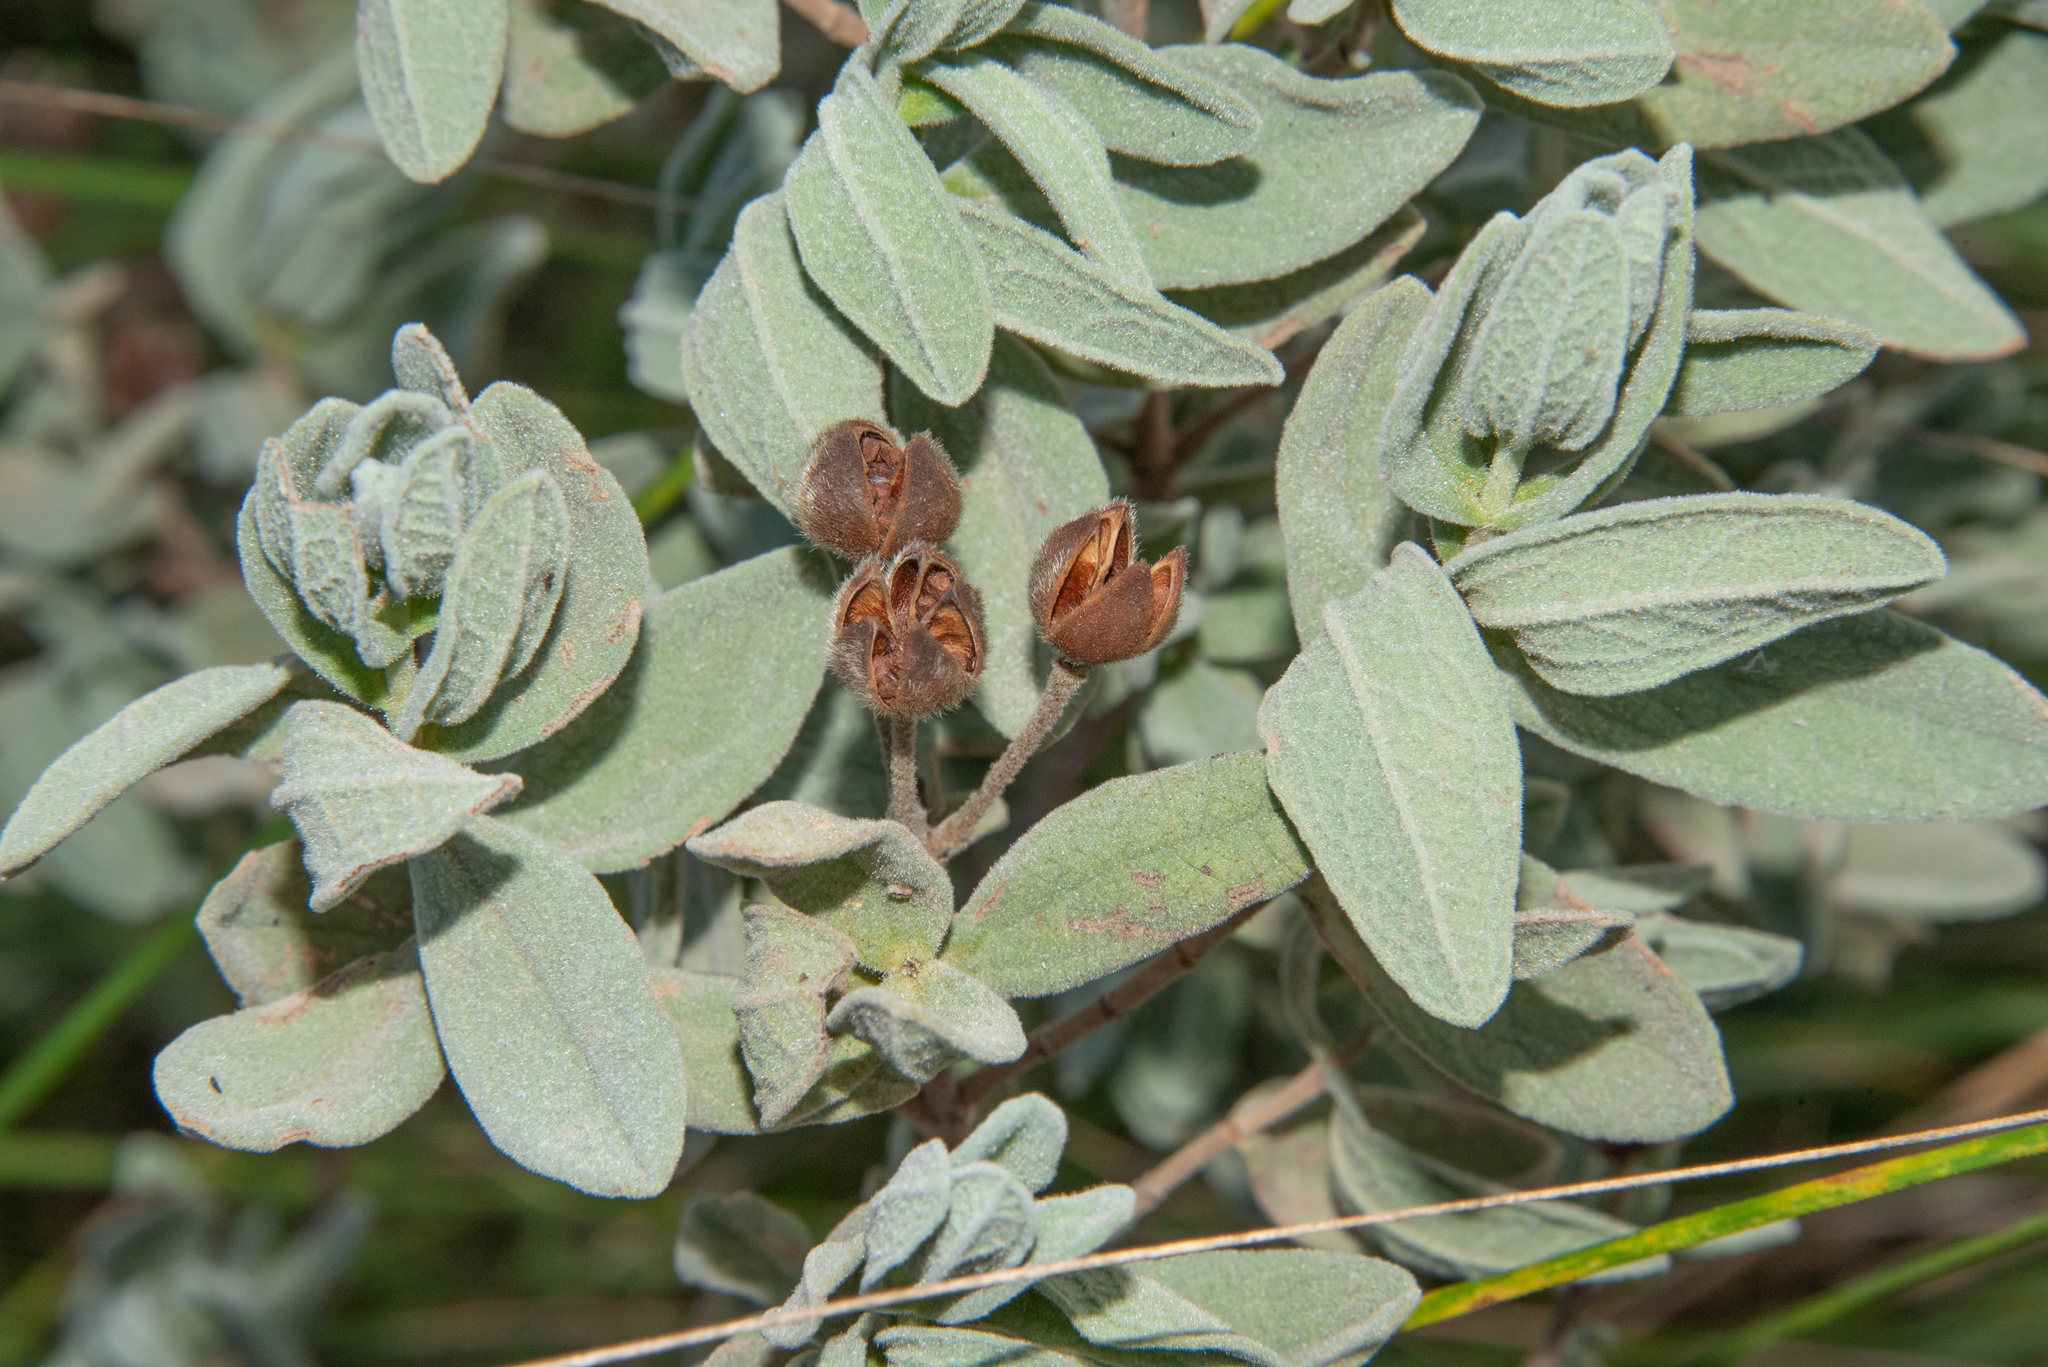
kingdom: Plantae
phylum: Tracheophyta
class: Magnoliopsida
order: Malvales
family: Cistaceae
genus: Cistus
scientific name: Cistus albidus
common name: White-leaf rock-rose
